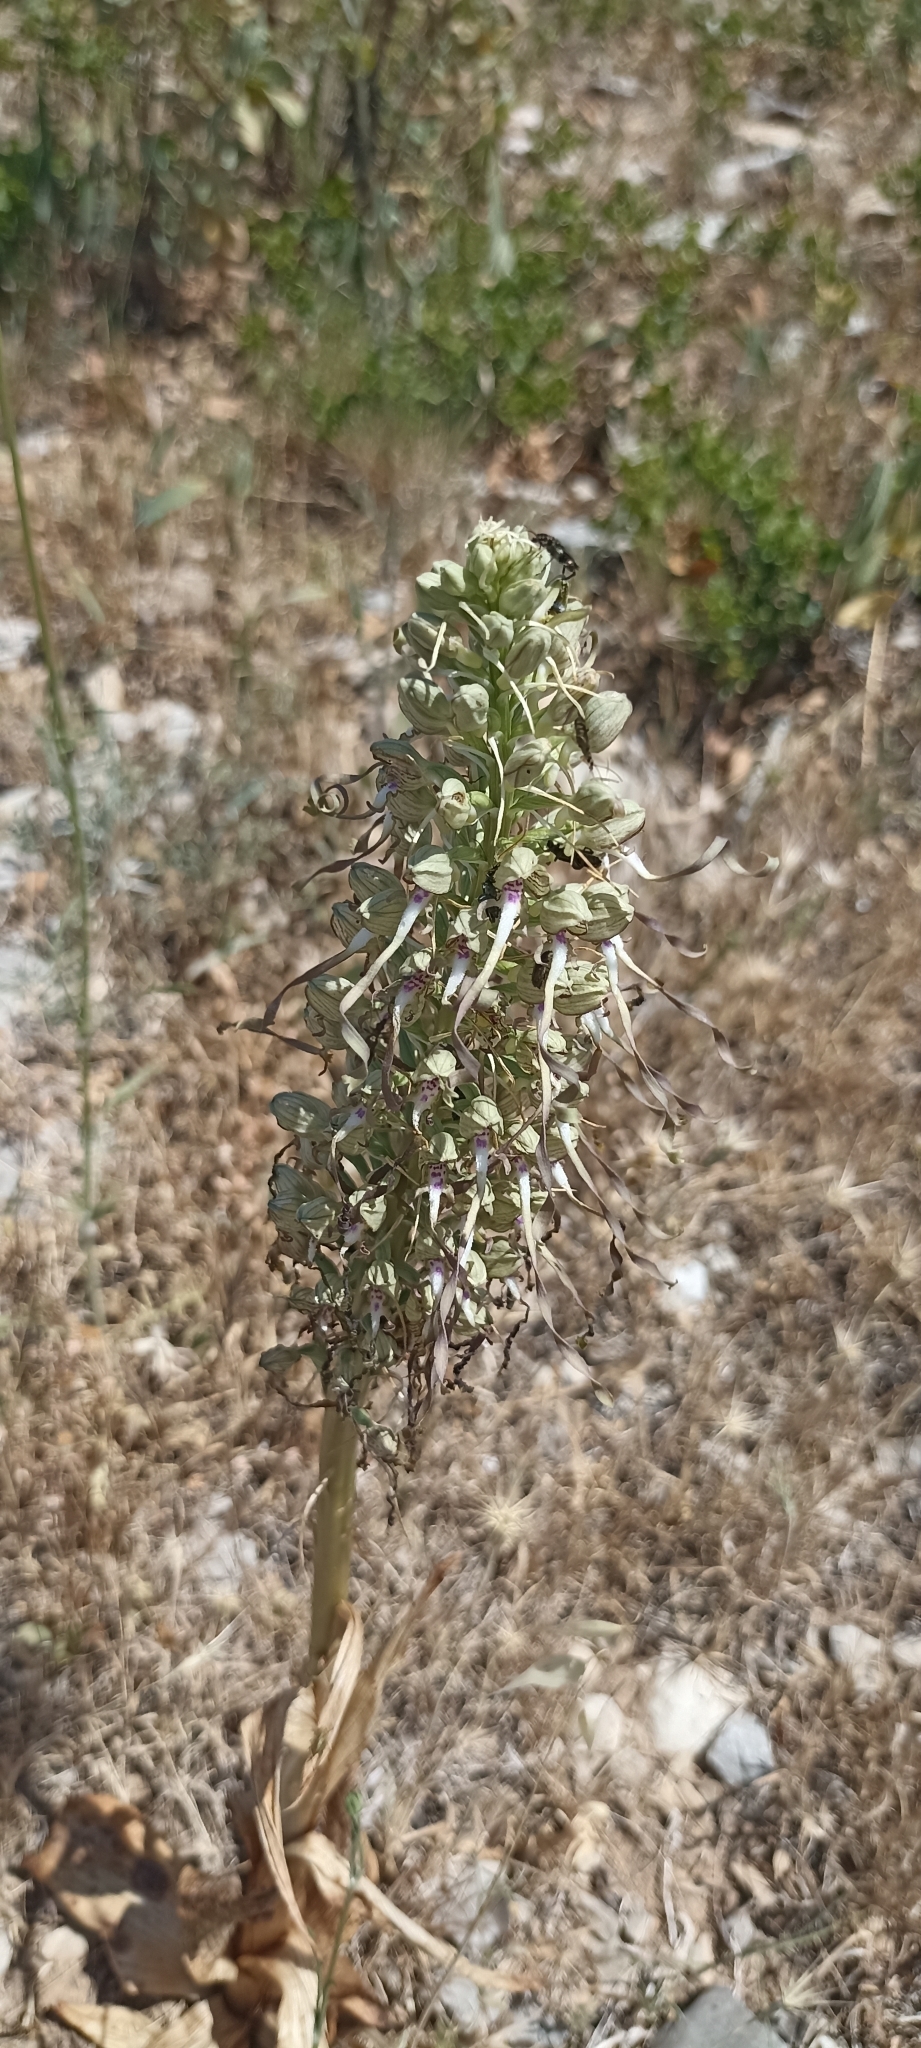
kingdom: Plantae
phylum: Tracheophyta
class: Liliopsida
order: Asparagales
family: Orchidaceae
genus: Himantoglossum
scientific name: Himantoglossum hircinum
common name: Lizard orchid
